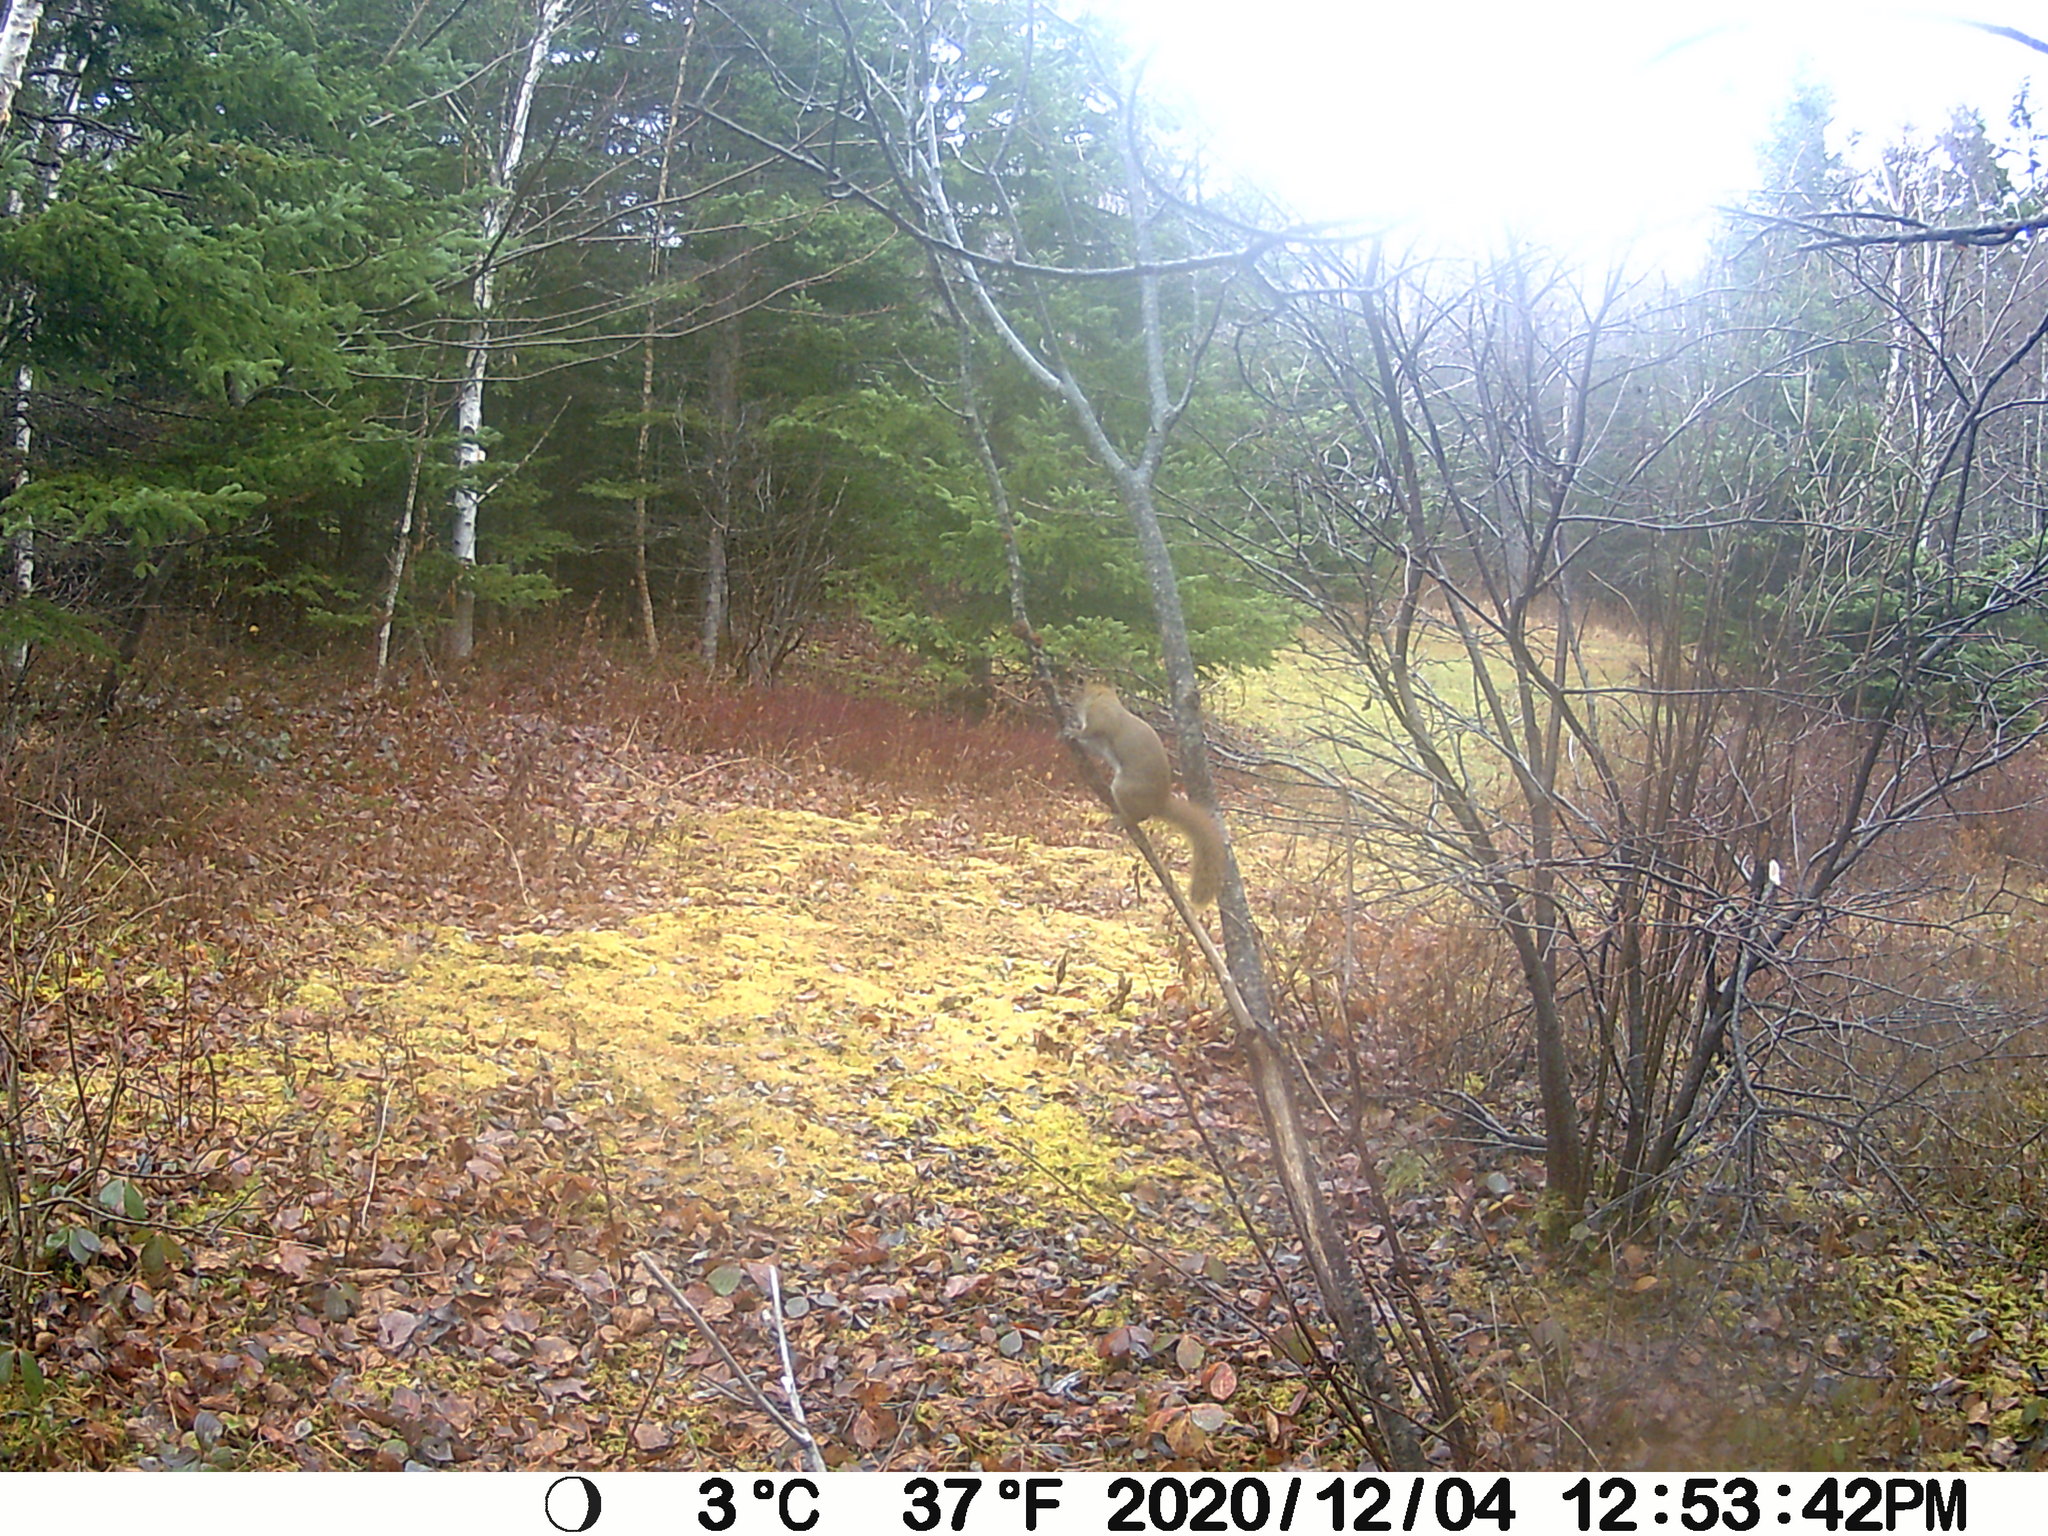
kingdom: Animalia
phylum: Chordata
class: Mammalia
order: Rodentia
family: Sciuridae
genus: Tamiasciurus
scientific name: Tamiasciurus hudsonicus
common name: Red squirrel
